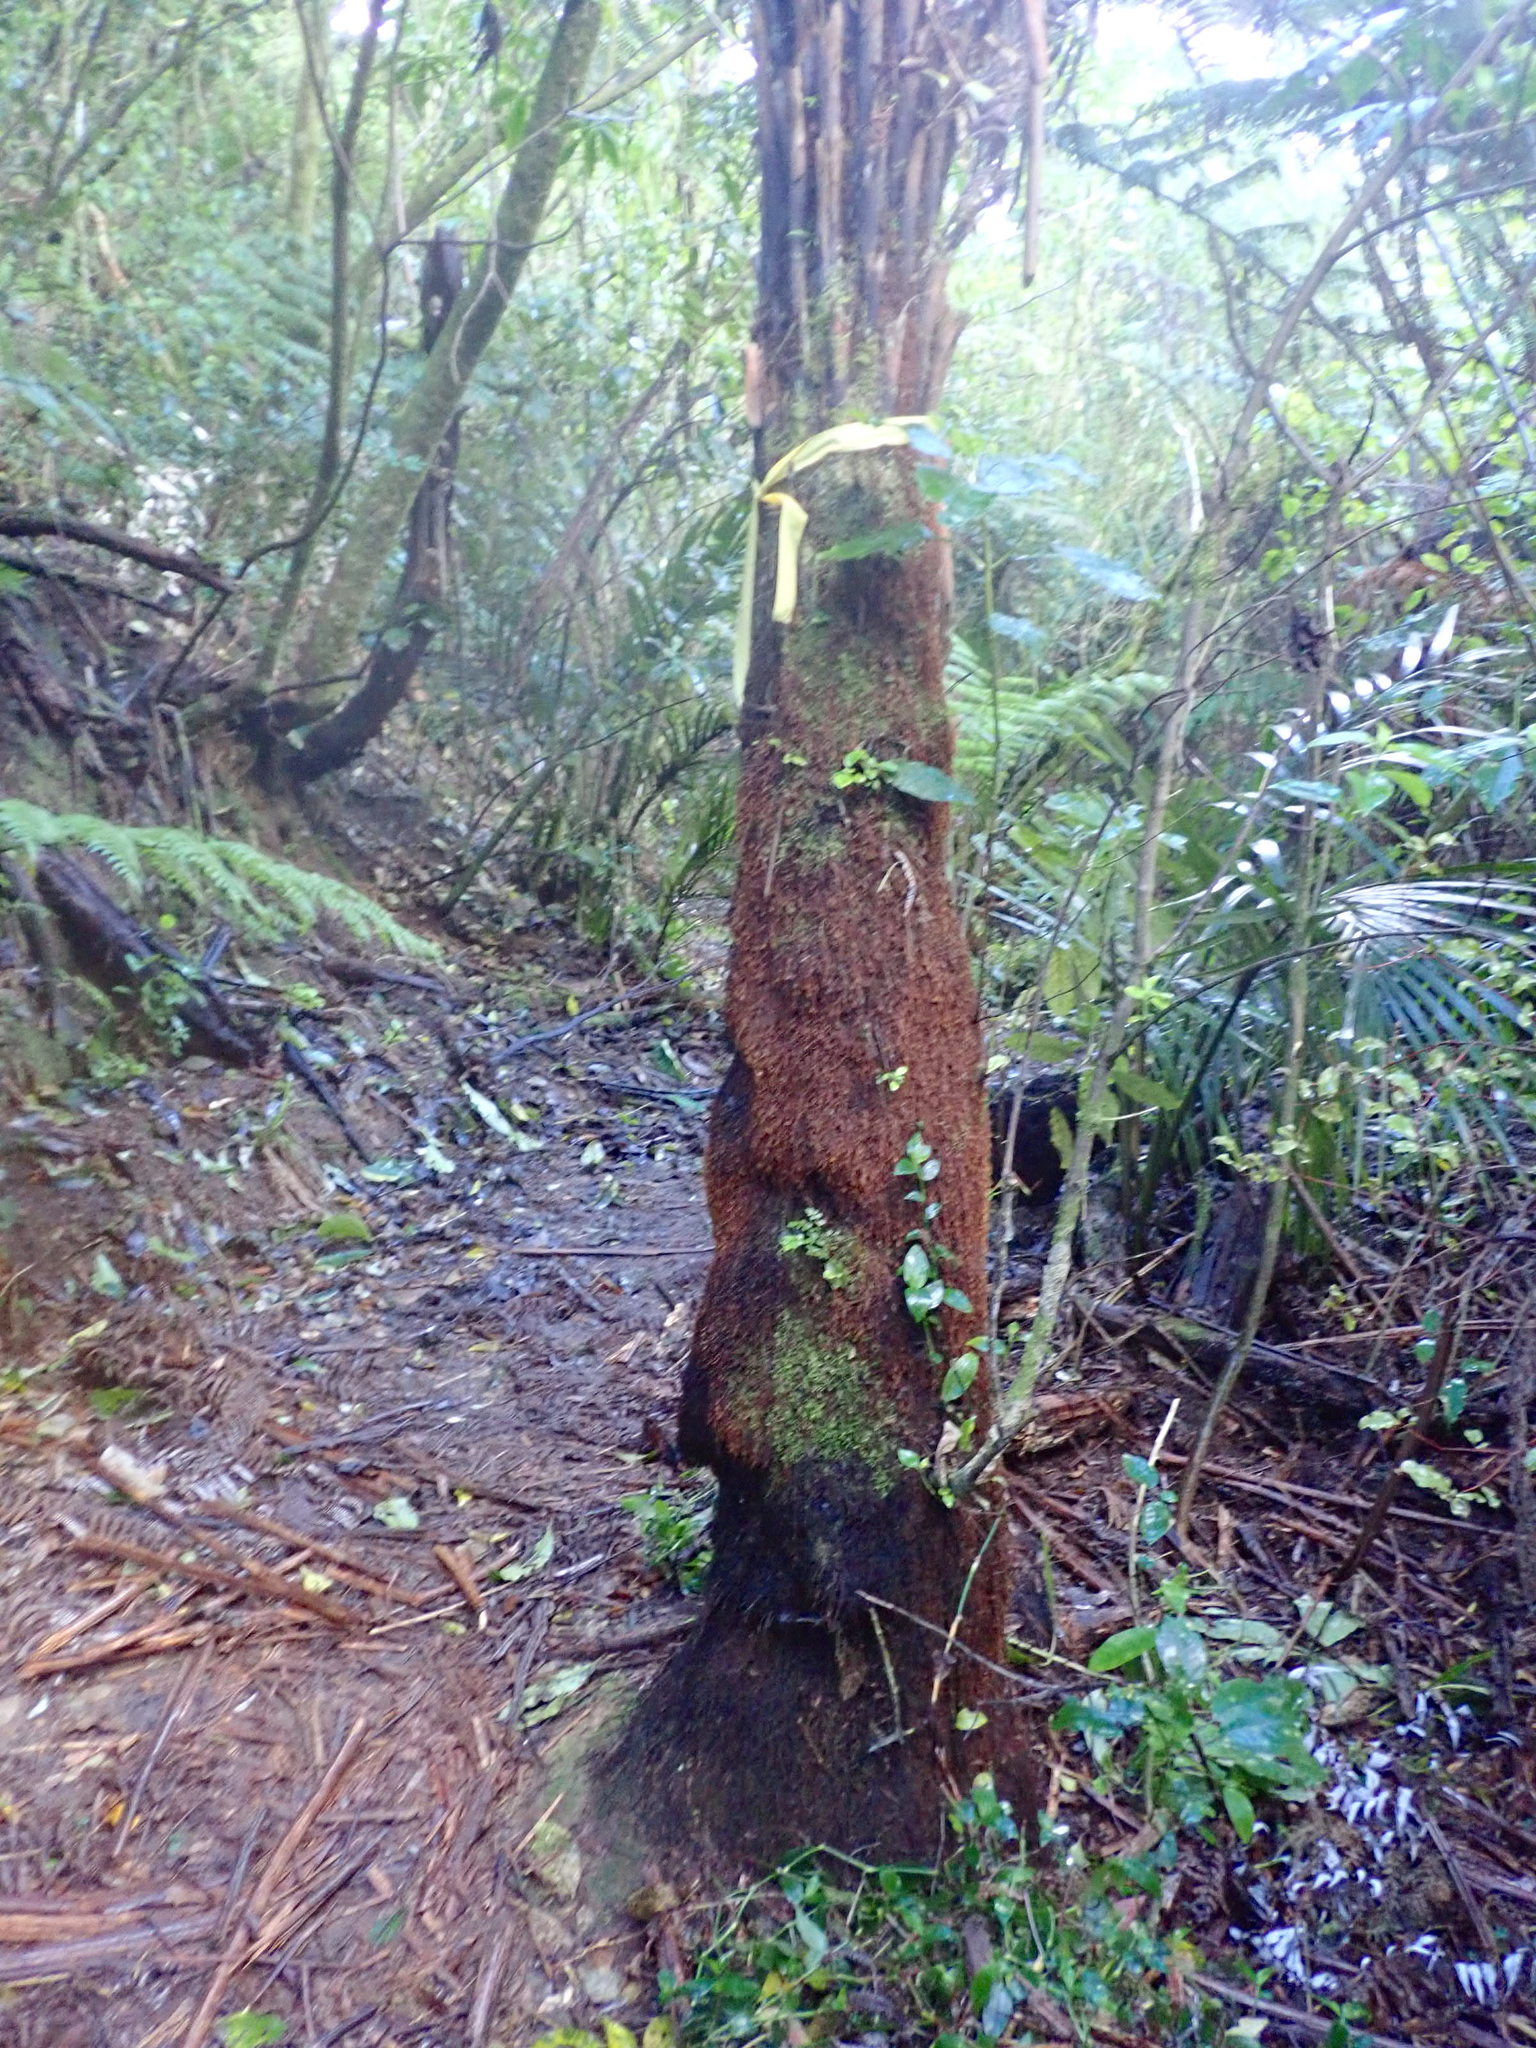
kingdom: Plantae
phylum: Tracheophyta
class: Liliopsida
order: Commelinales
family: Commelinaceae
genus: Tradescantia
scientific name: Tradescantia fluminensis
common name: Wandering-jew
